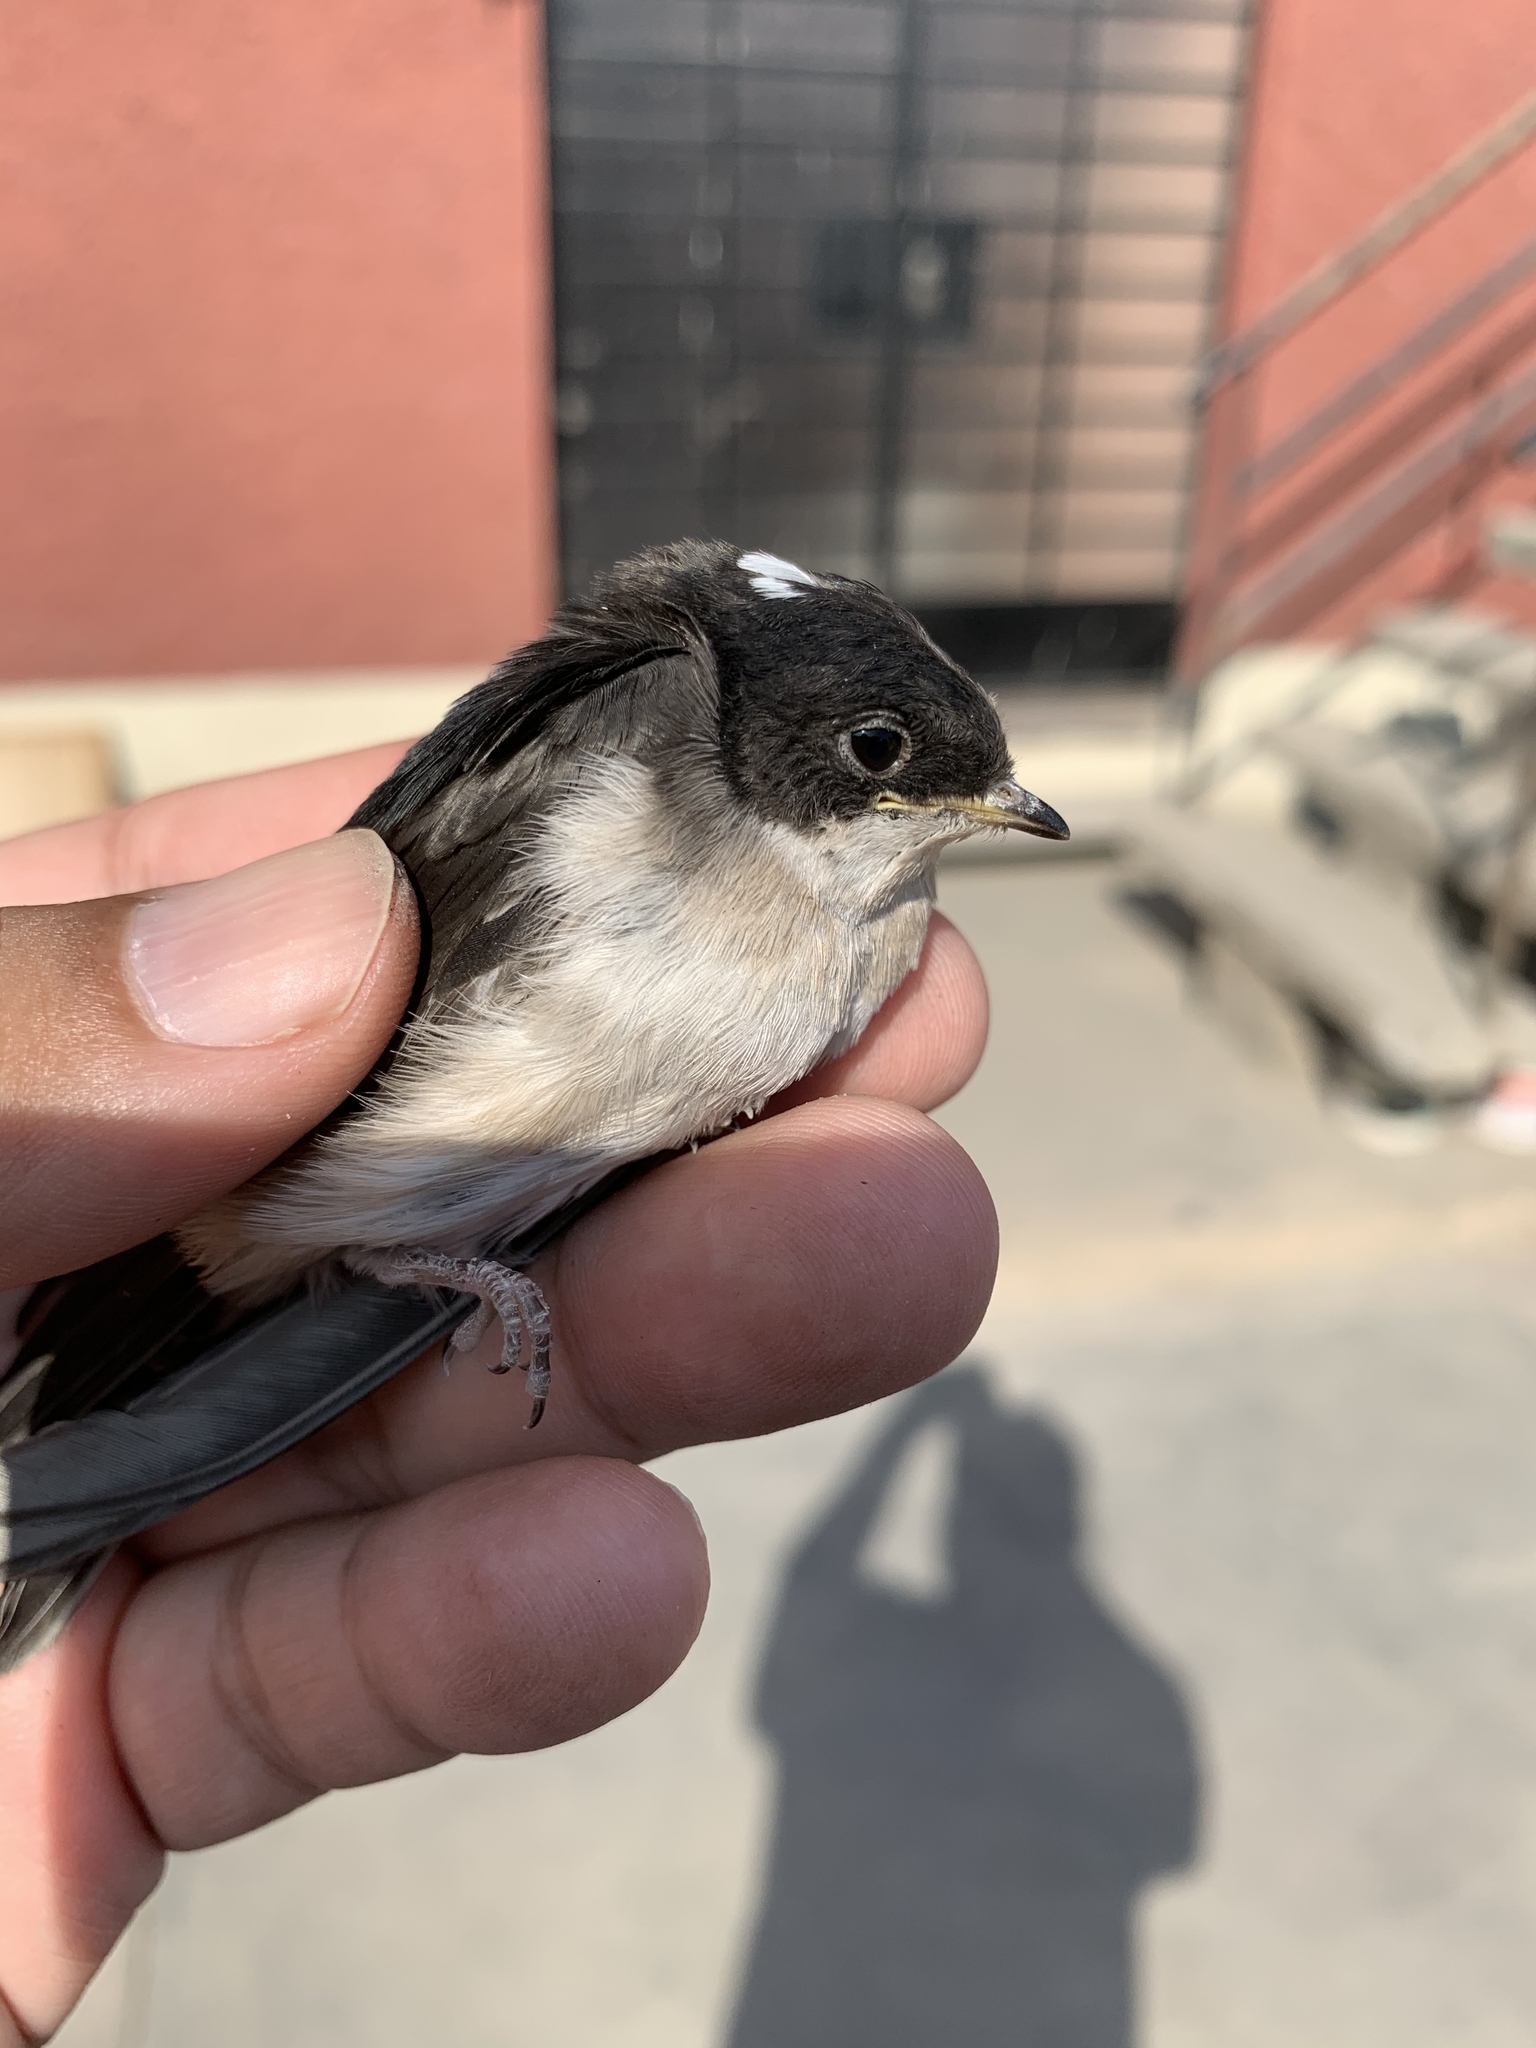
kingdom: Animalia
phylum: Chordata
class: Aves
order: Passeriformes
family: Hirundinidae
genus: Notiochelidon
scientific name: Notiochelidon cyanoleuca
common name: Blue-and-white swallow
